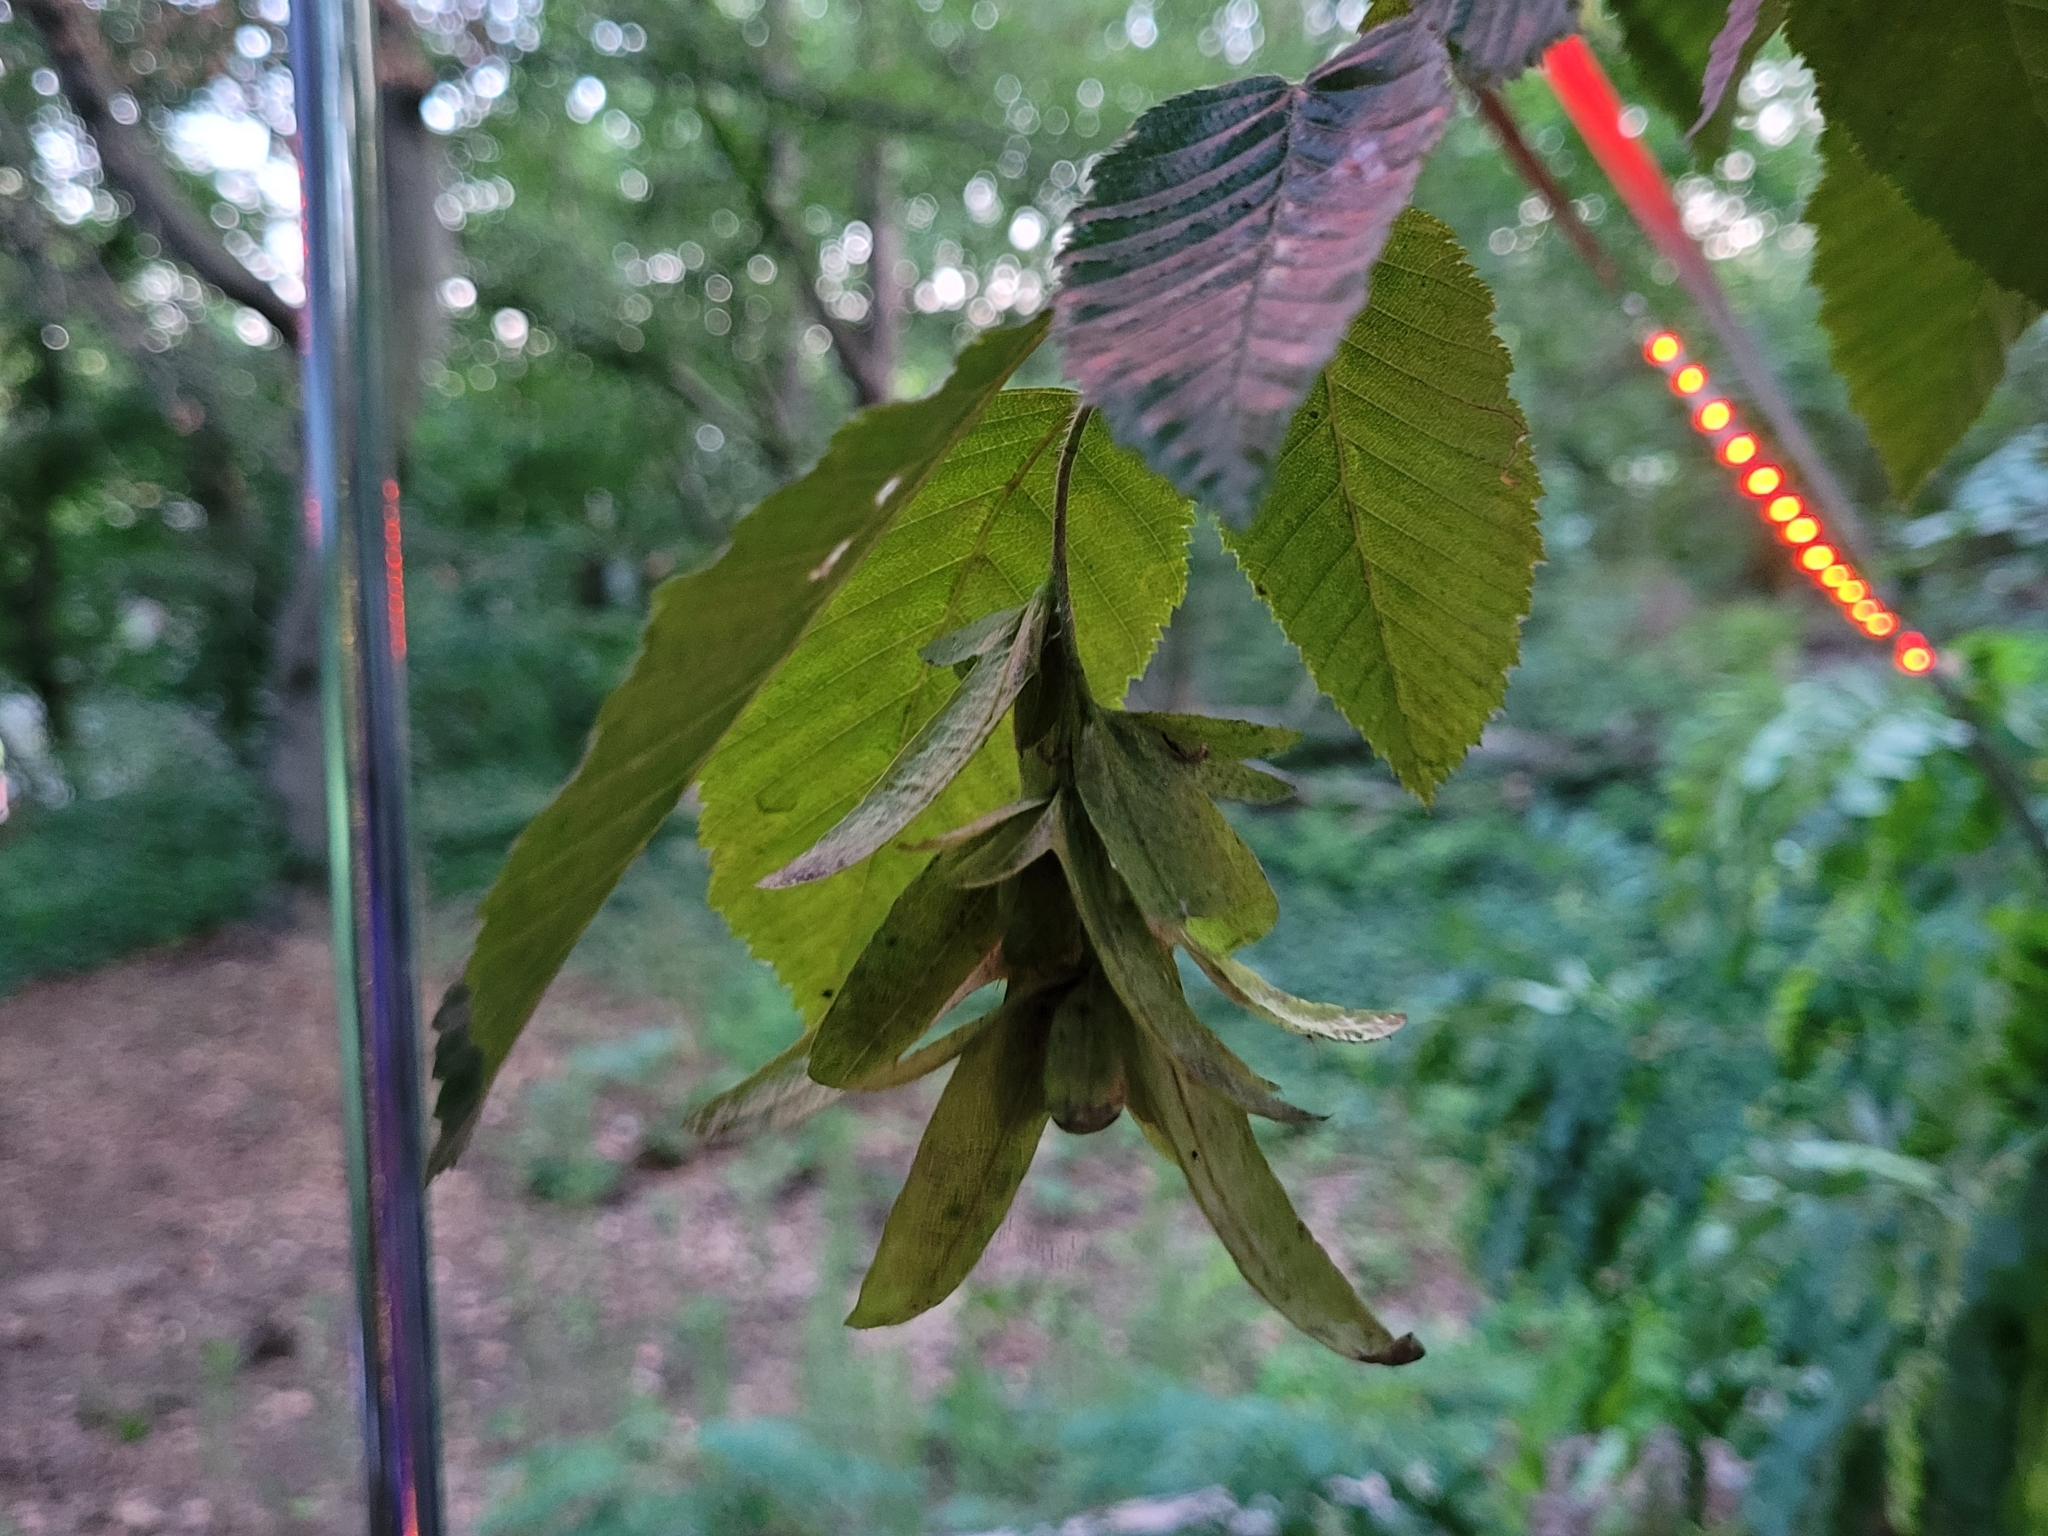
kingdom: Plantae
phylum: Tracheophyta
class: Magnoliopsida
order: Fagales
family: Betulaceae
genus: Carpinus
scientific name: Carpinus betulus
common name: Hornbeam
